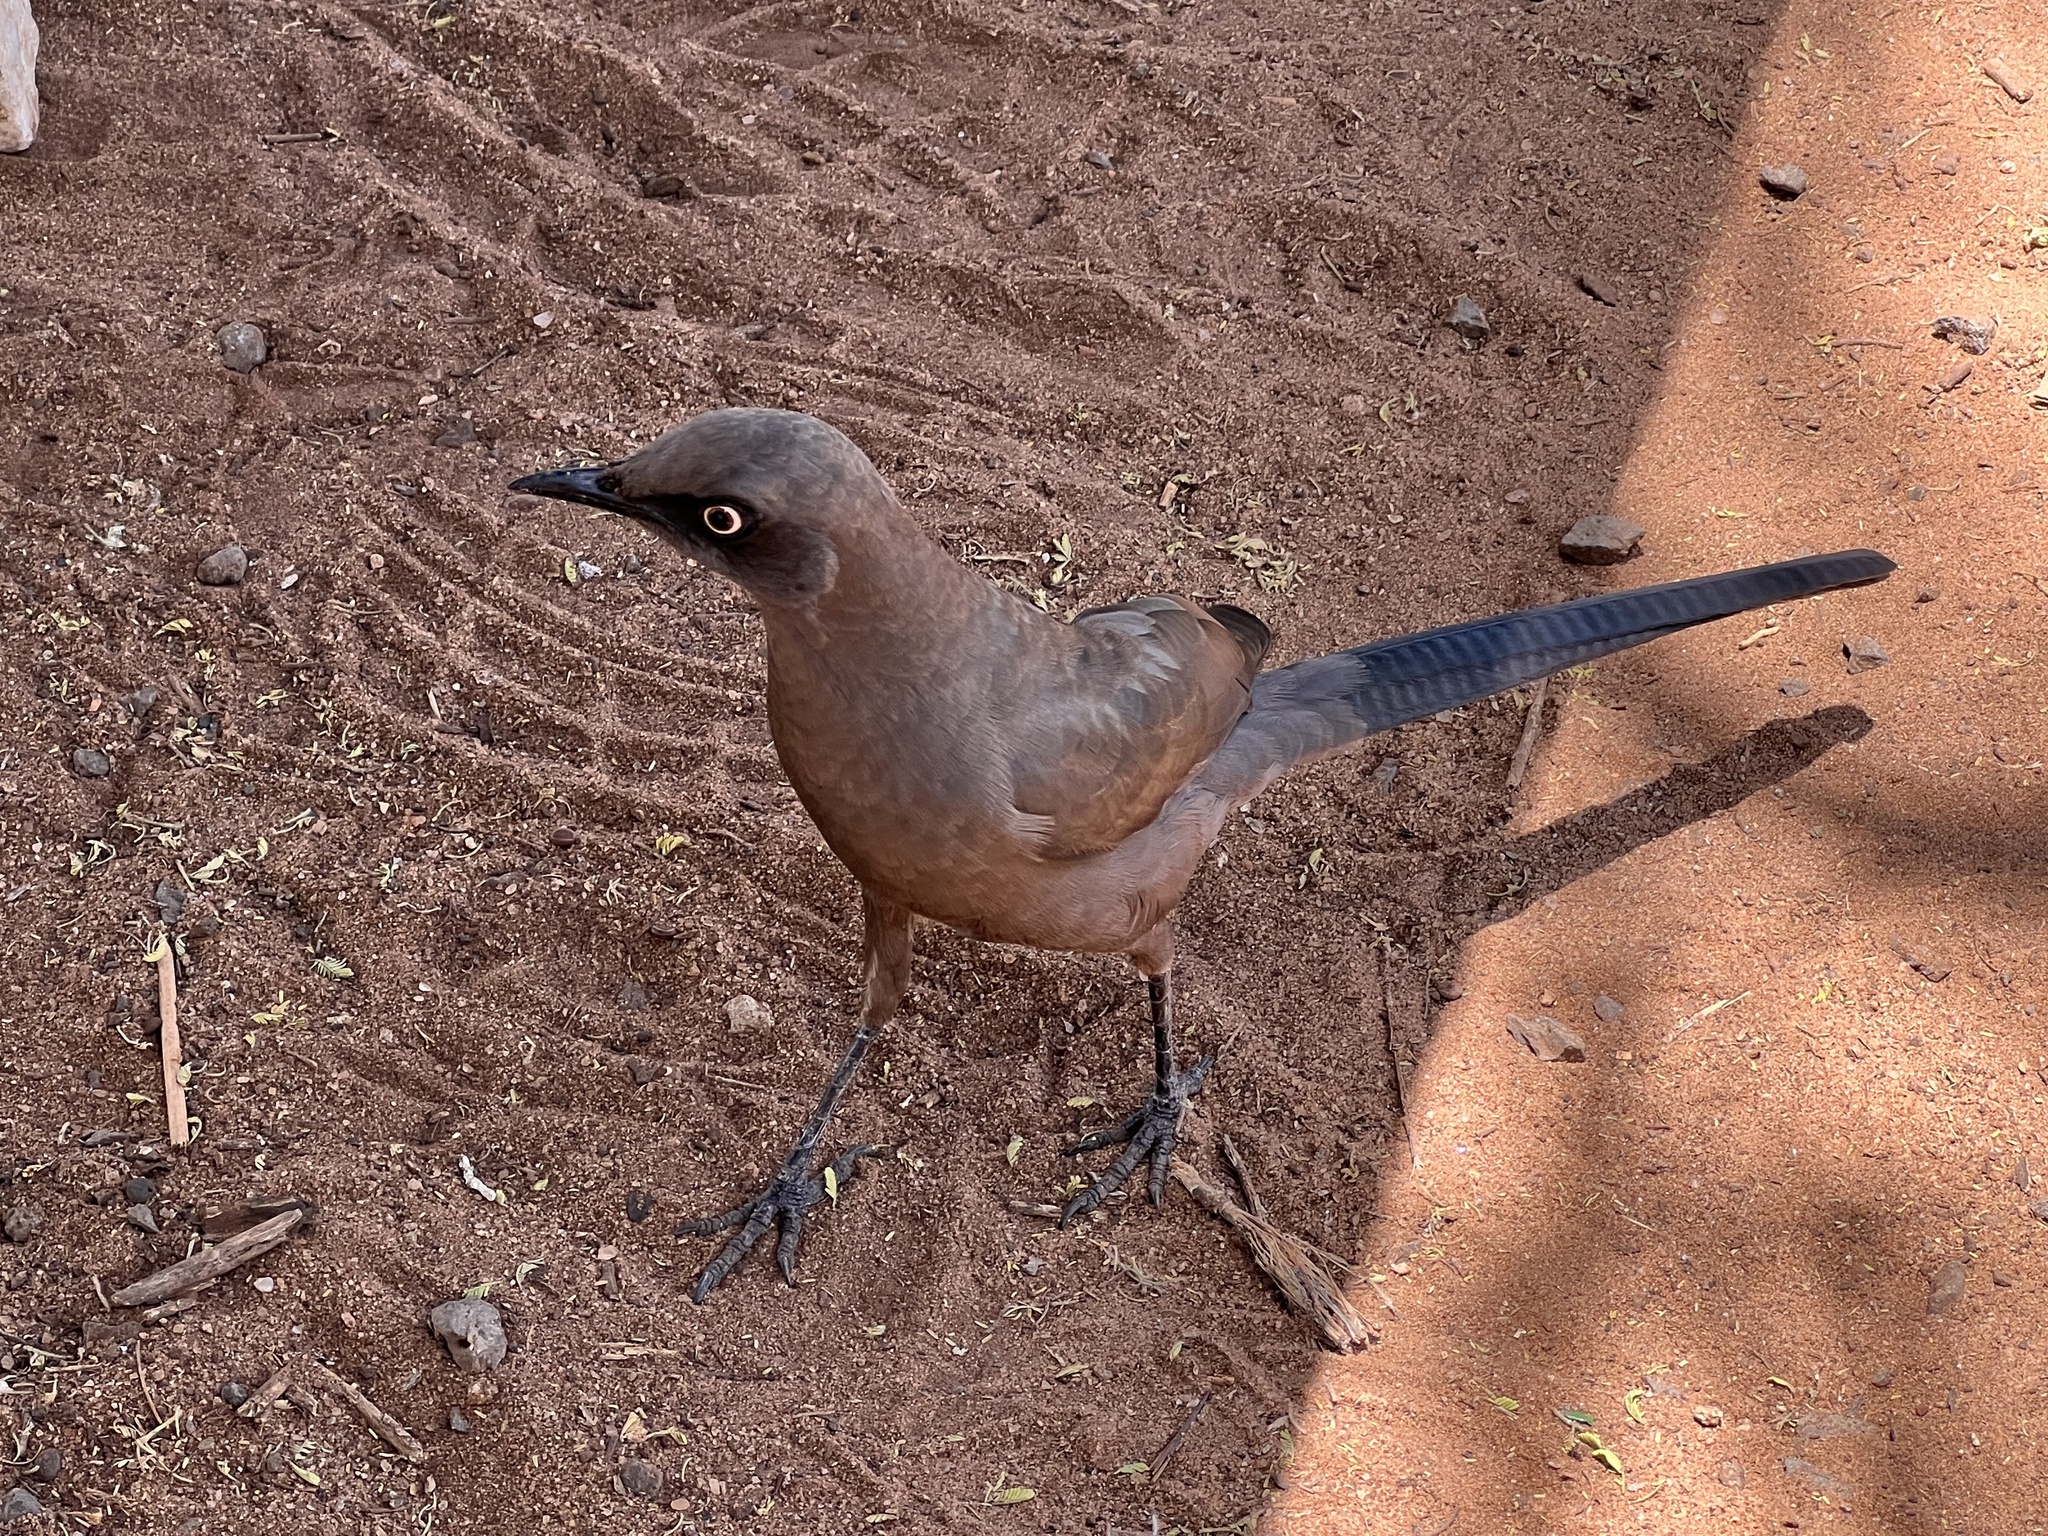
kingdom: Animalia
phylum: Chordata
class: Aves
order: Passeriformes
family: Sturnidae
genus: Lamprotornis
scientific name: Lamprotornis unicolor
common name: Ashy starling
